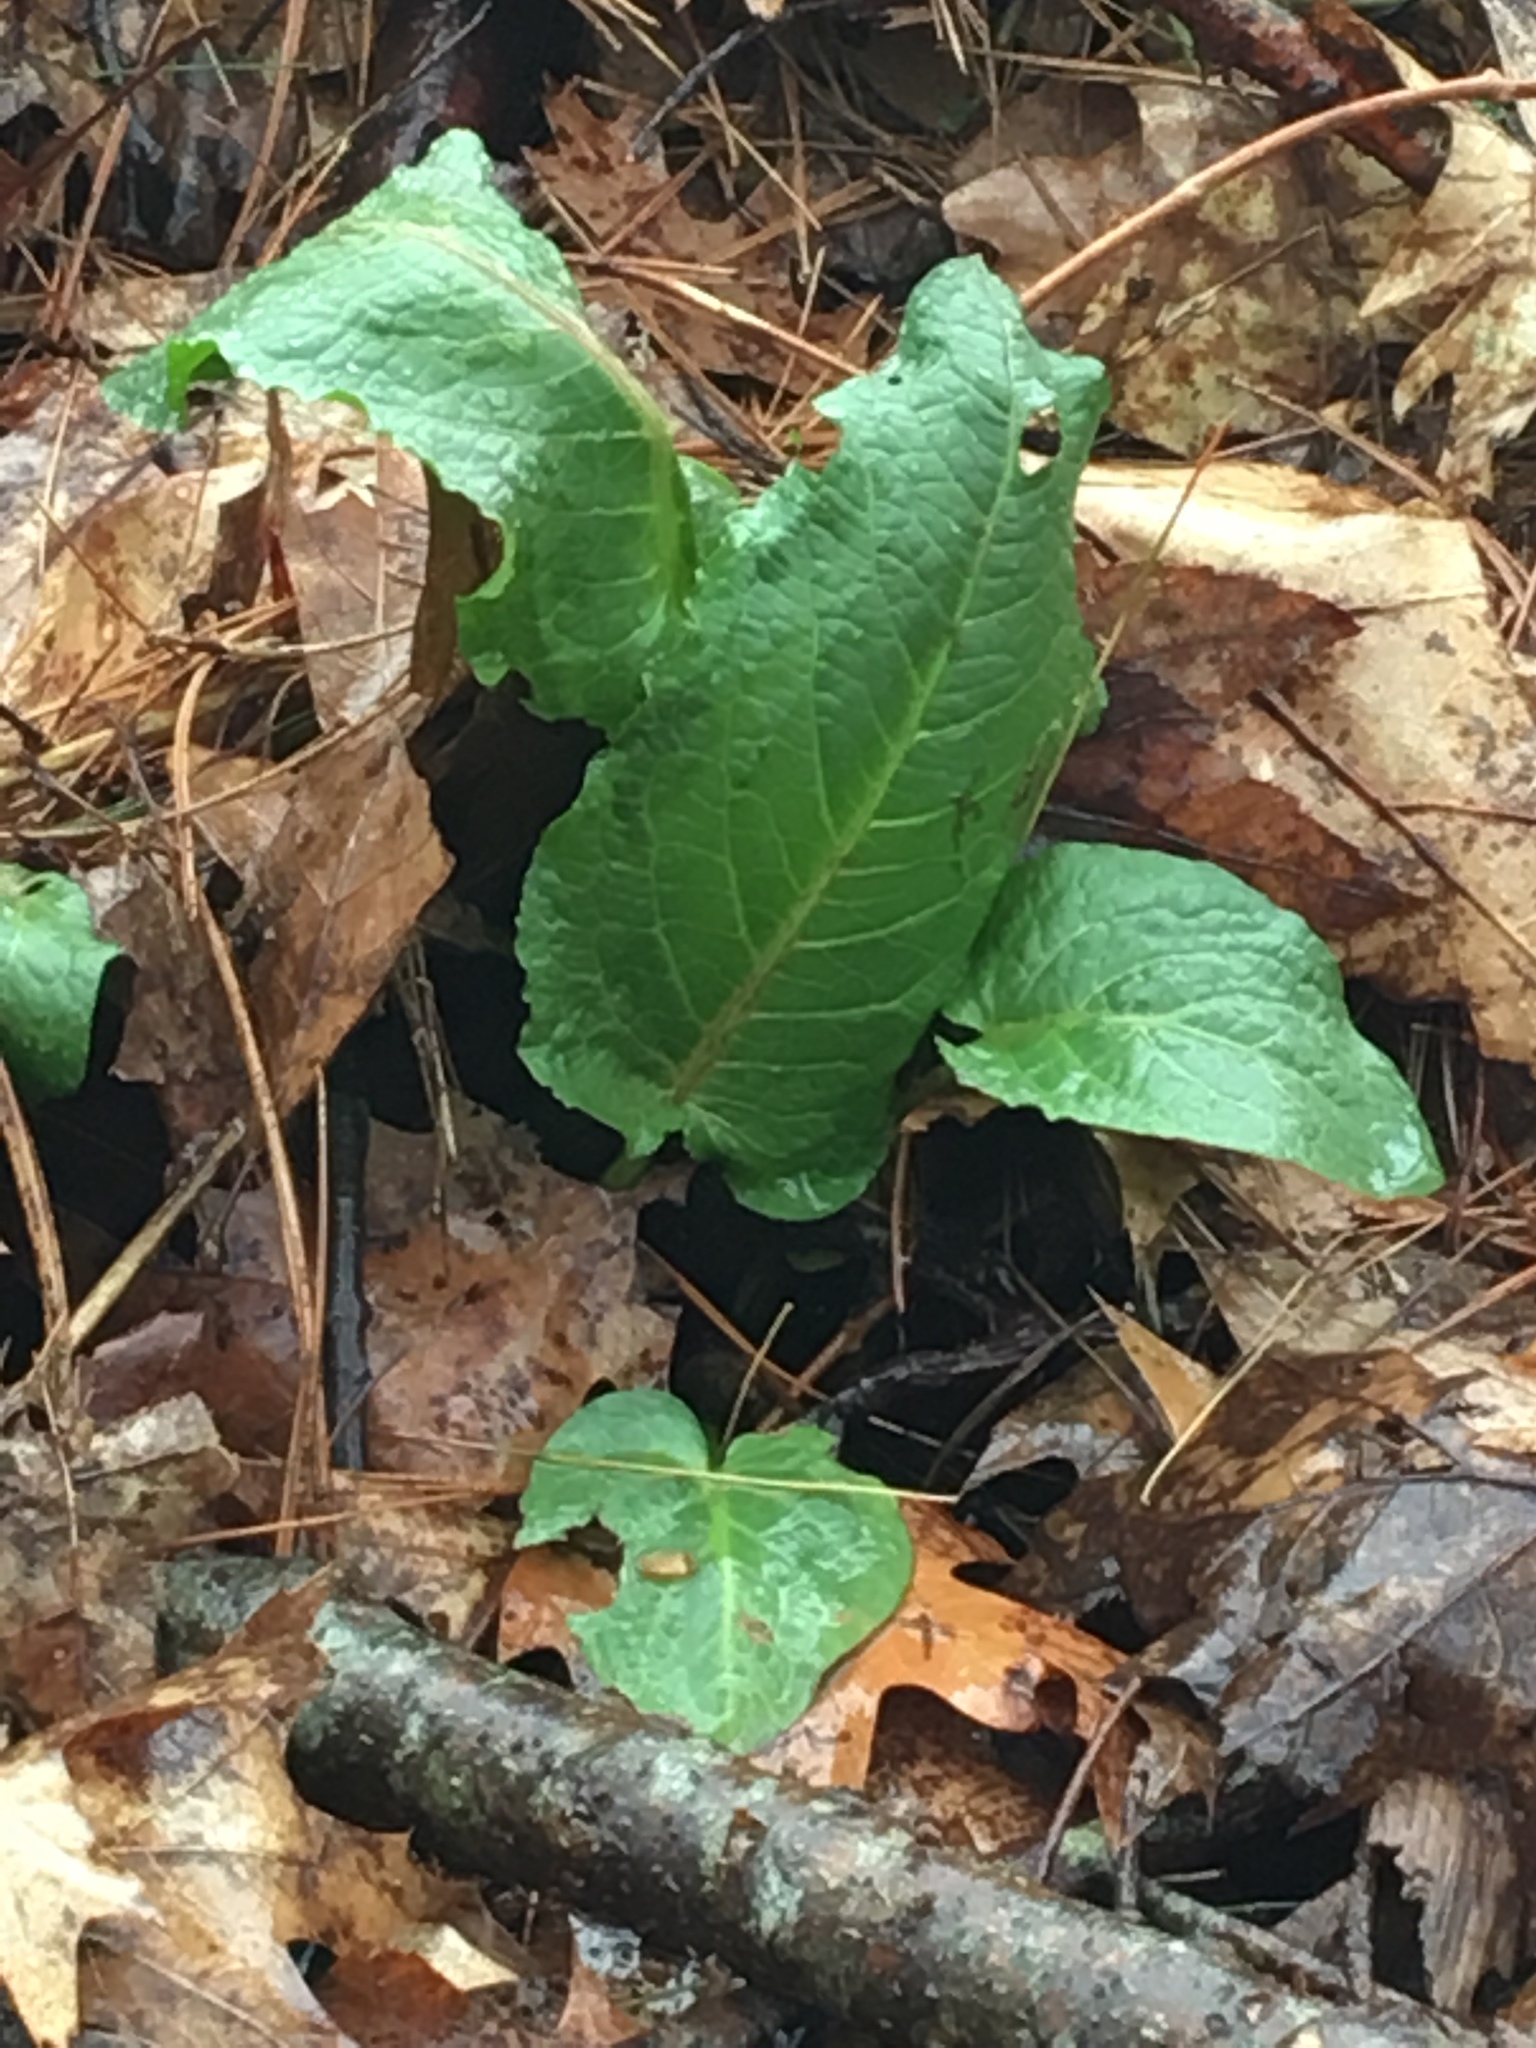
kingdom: Plantae
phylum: Tracheophyta
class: Magnoliopsida
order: Caryophyllales
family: Polygonaceae
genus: Rumex
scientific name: Rumex obtusifolius
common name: Bitter dock
